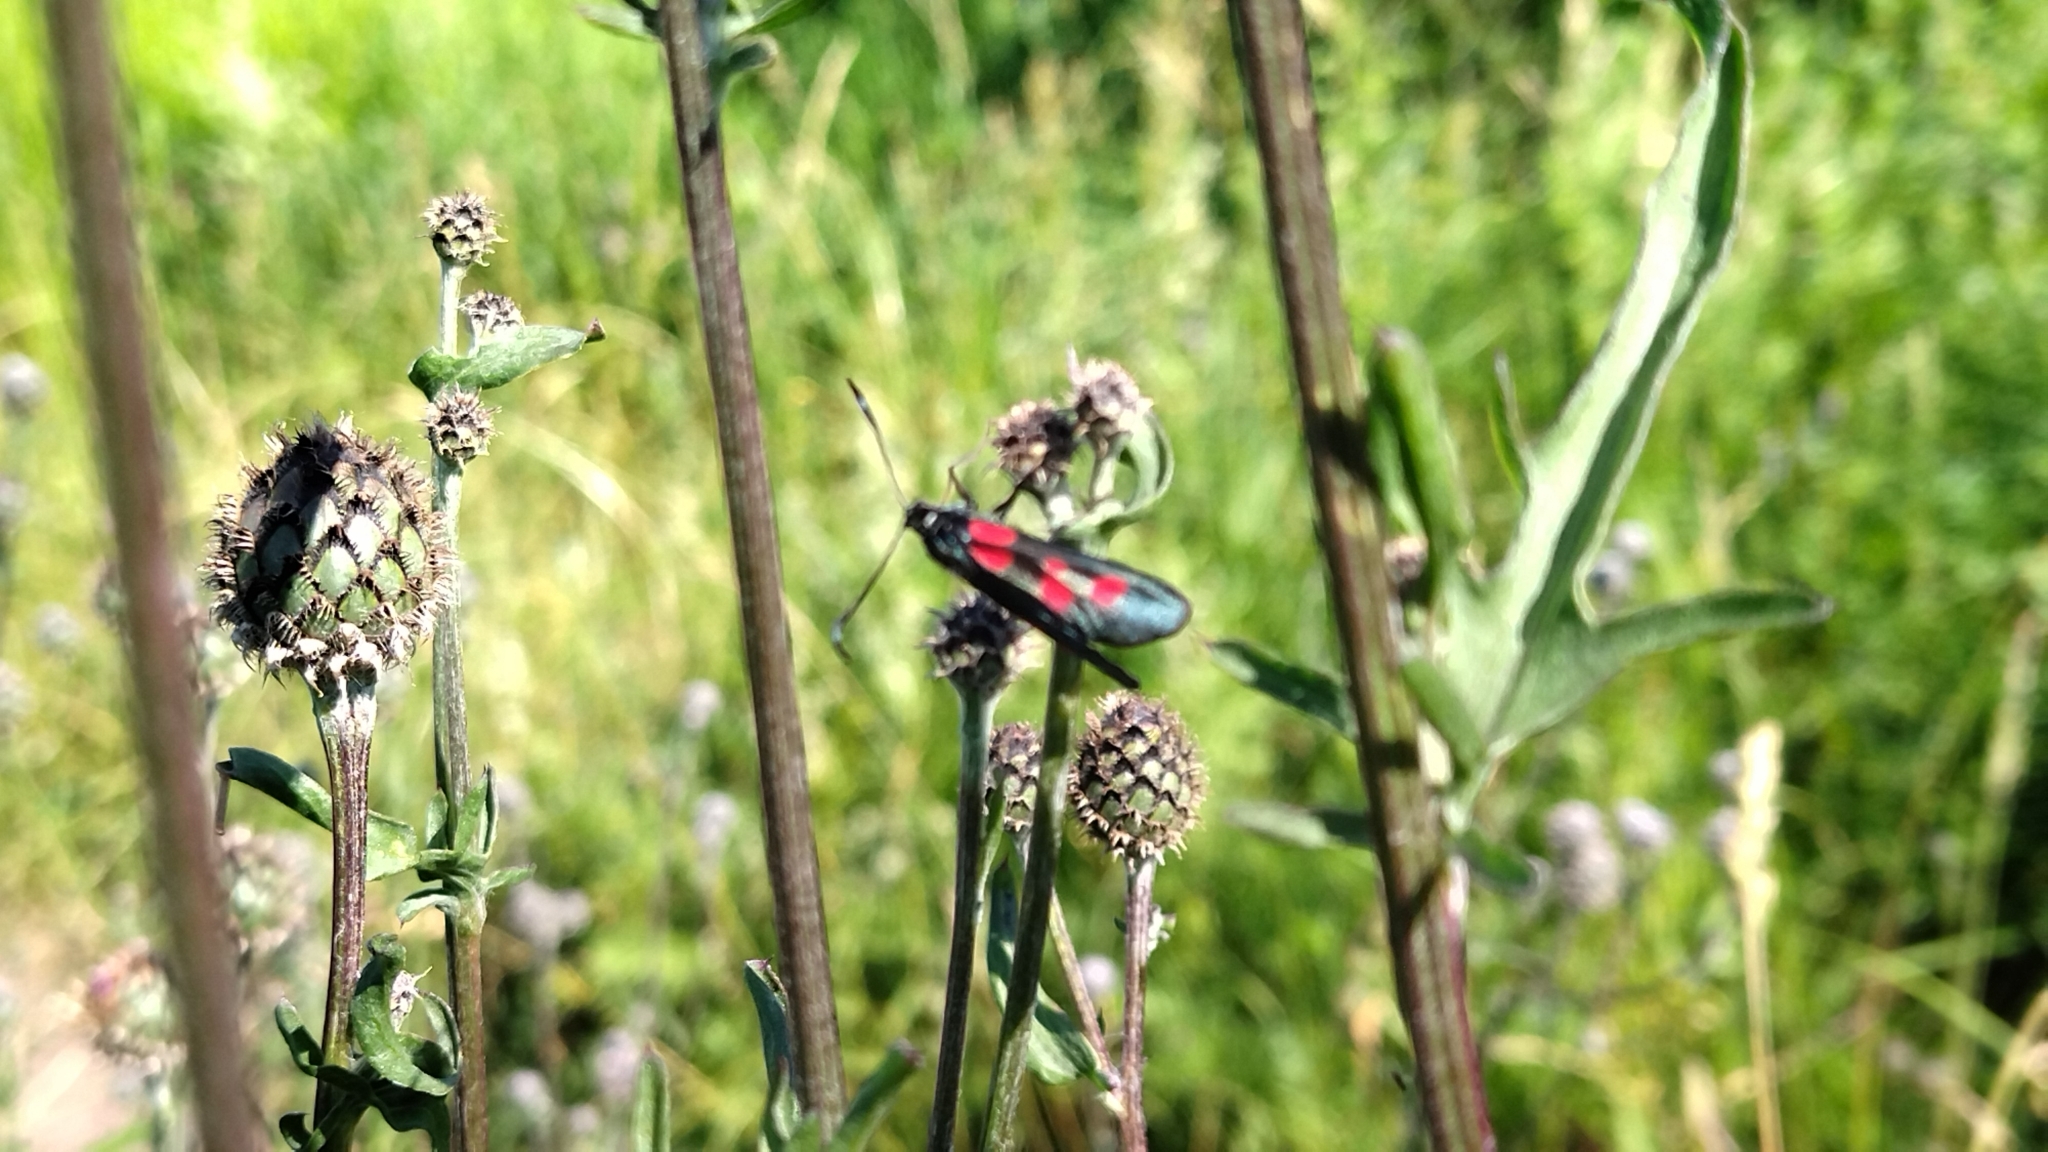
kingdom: Animalia
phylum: Arthropoda
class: Insecta
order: Lepidoptera
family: Zygaenidae
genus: Zygaena
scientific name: Zygaena lonicerae
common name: Narrow-bordered five-spot burnet
